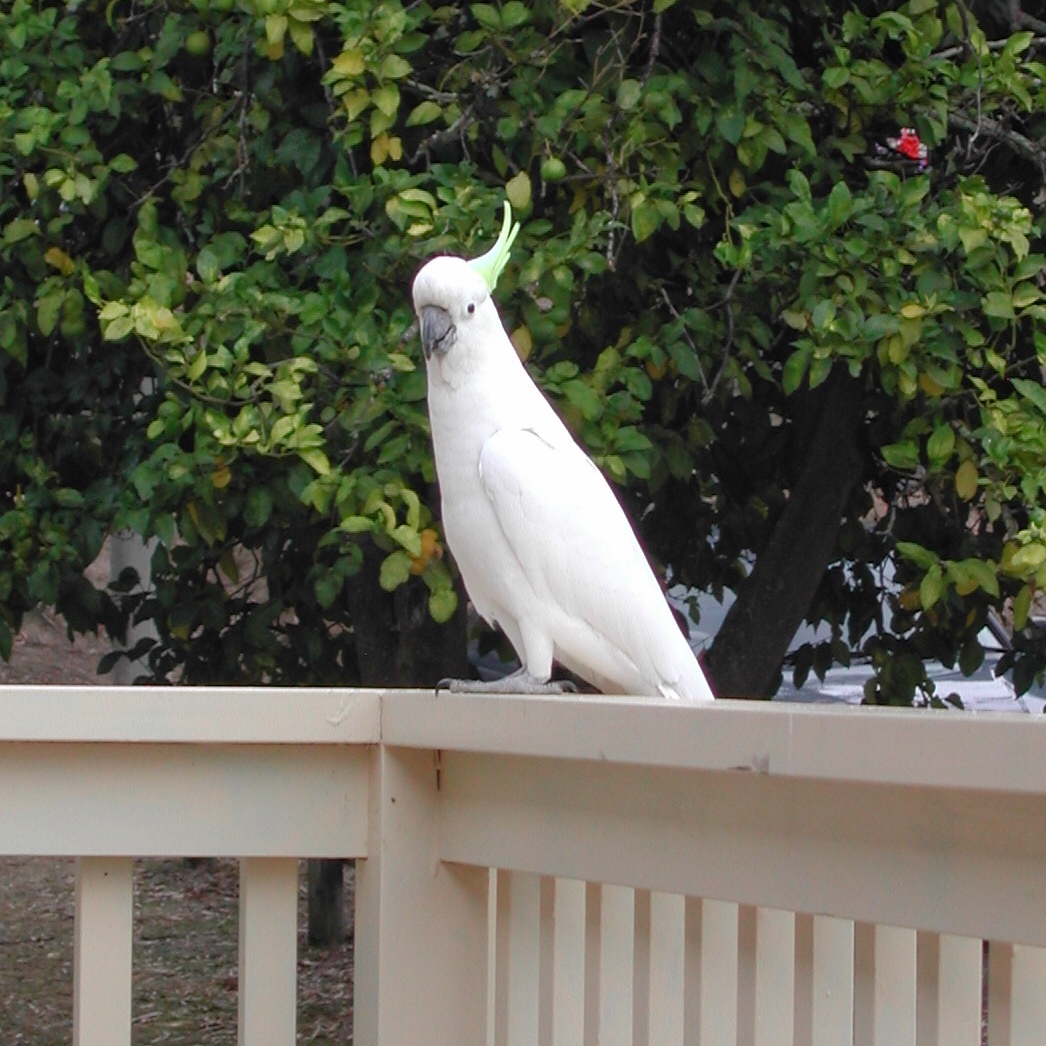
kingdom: Animalia
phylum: Chordata
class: Aves
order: Psittaciformes
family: Psittacidae
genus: Cacatua
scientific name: Cacatua galerita
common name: Sulphur-crested cockatoo
